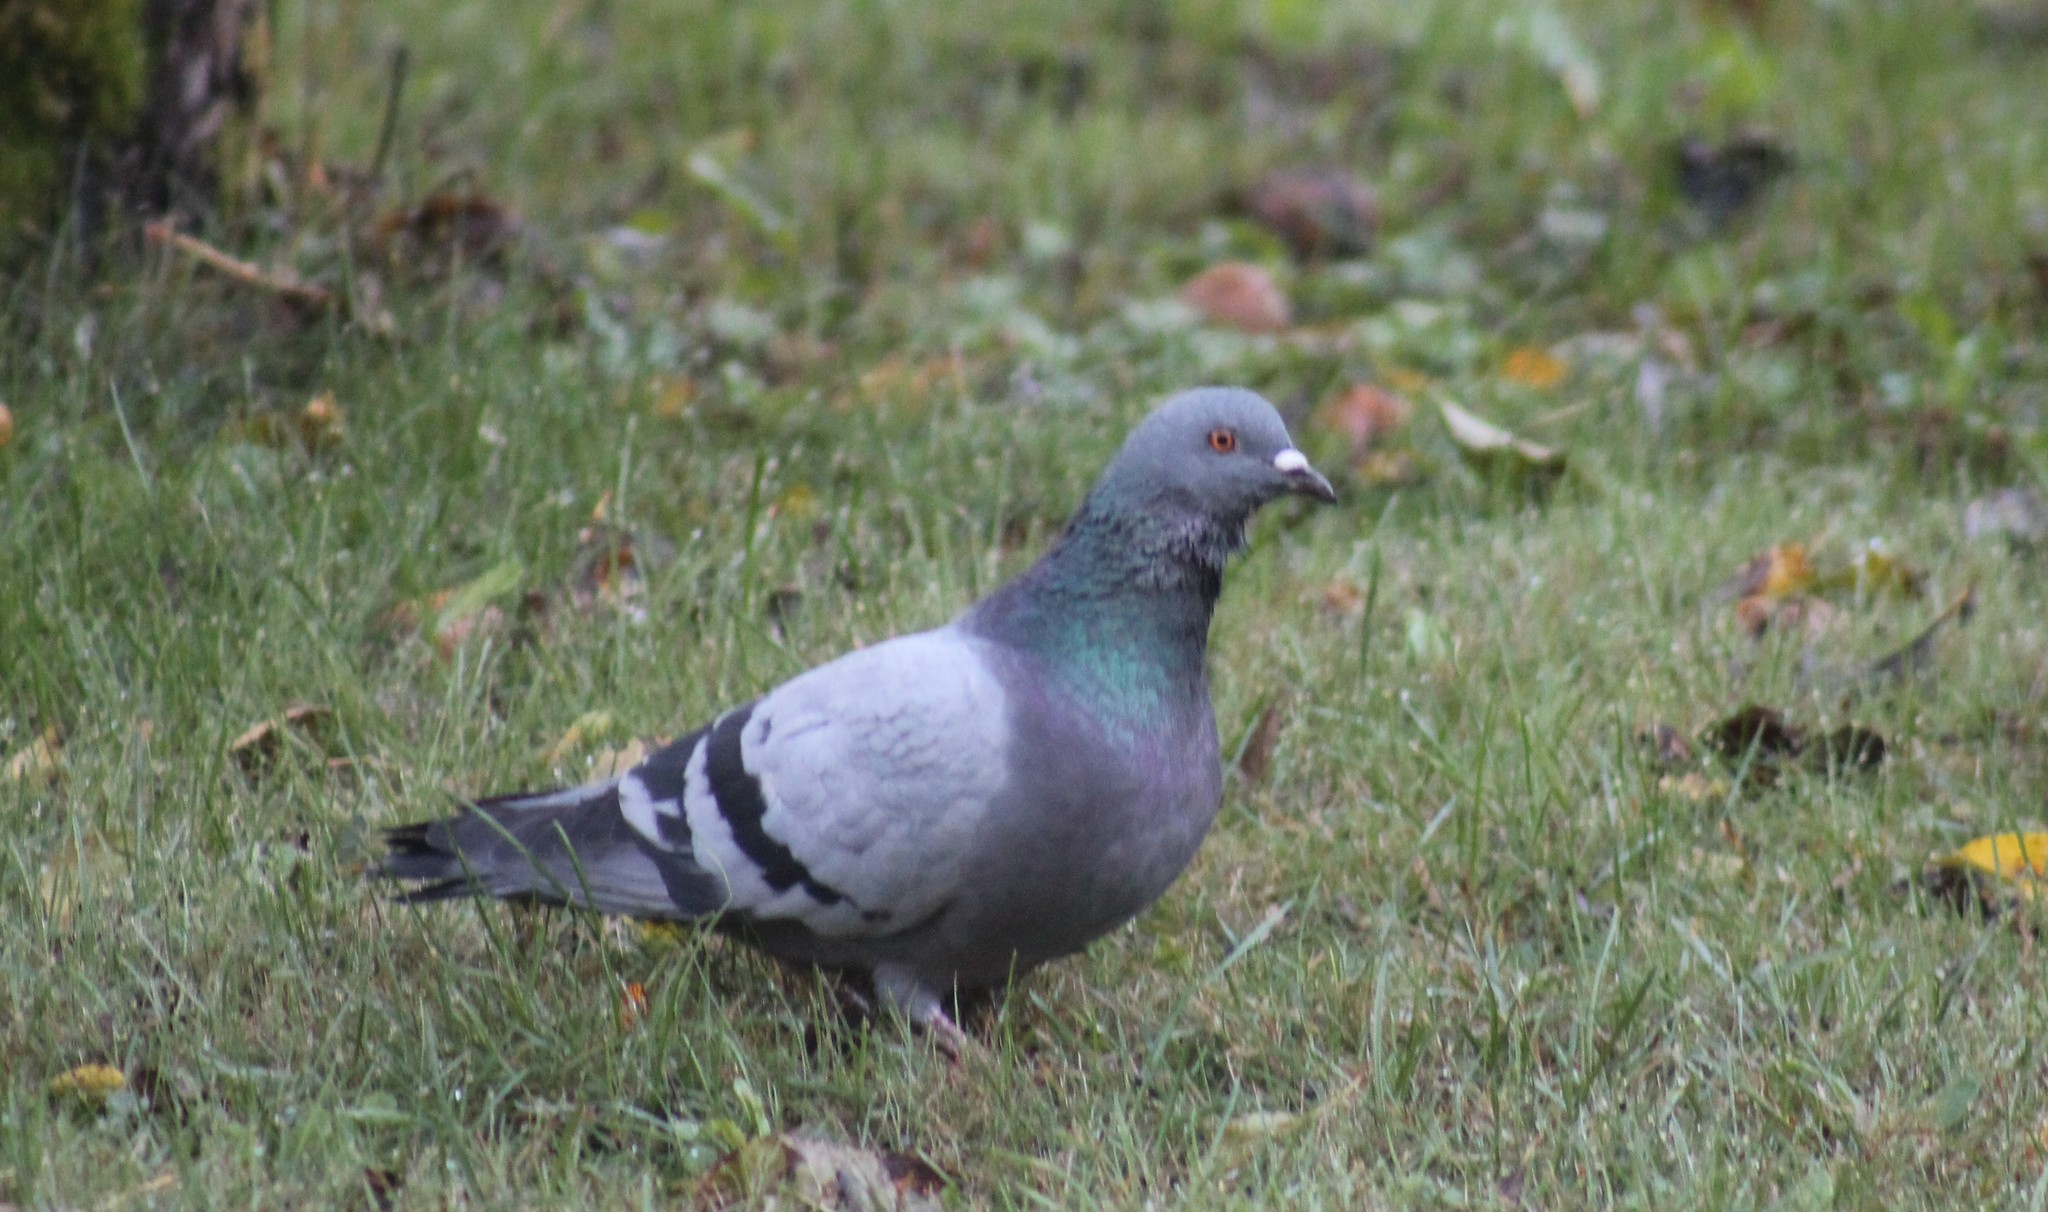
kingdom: Animalia
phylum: Chordata
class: Aves
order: Columbiformes
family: Columbidae
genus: Columba
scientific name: Columba livia
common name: Rock pigeon
